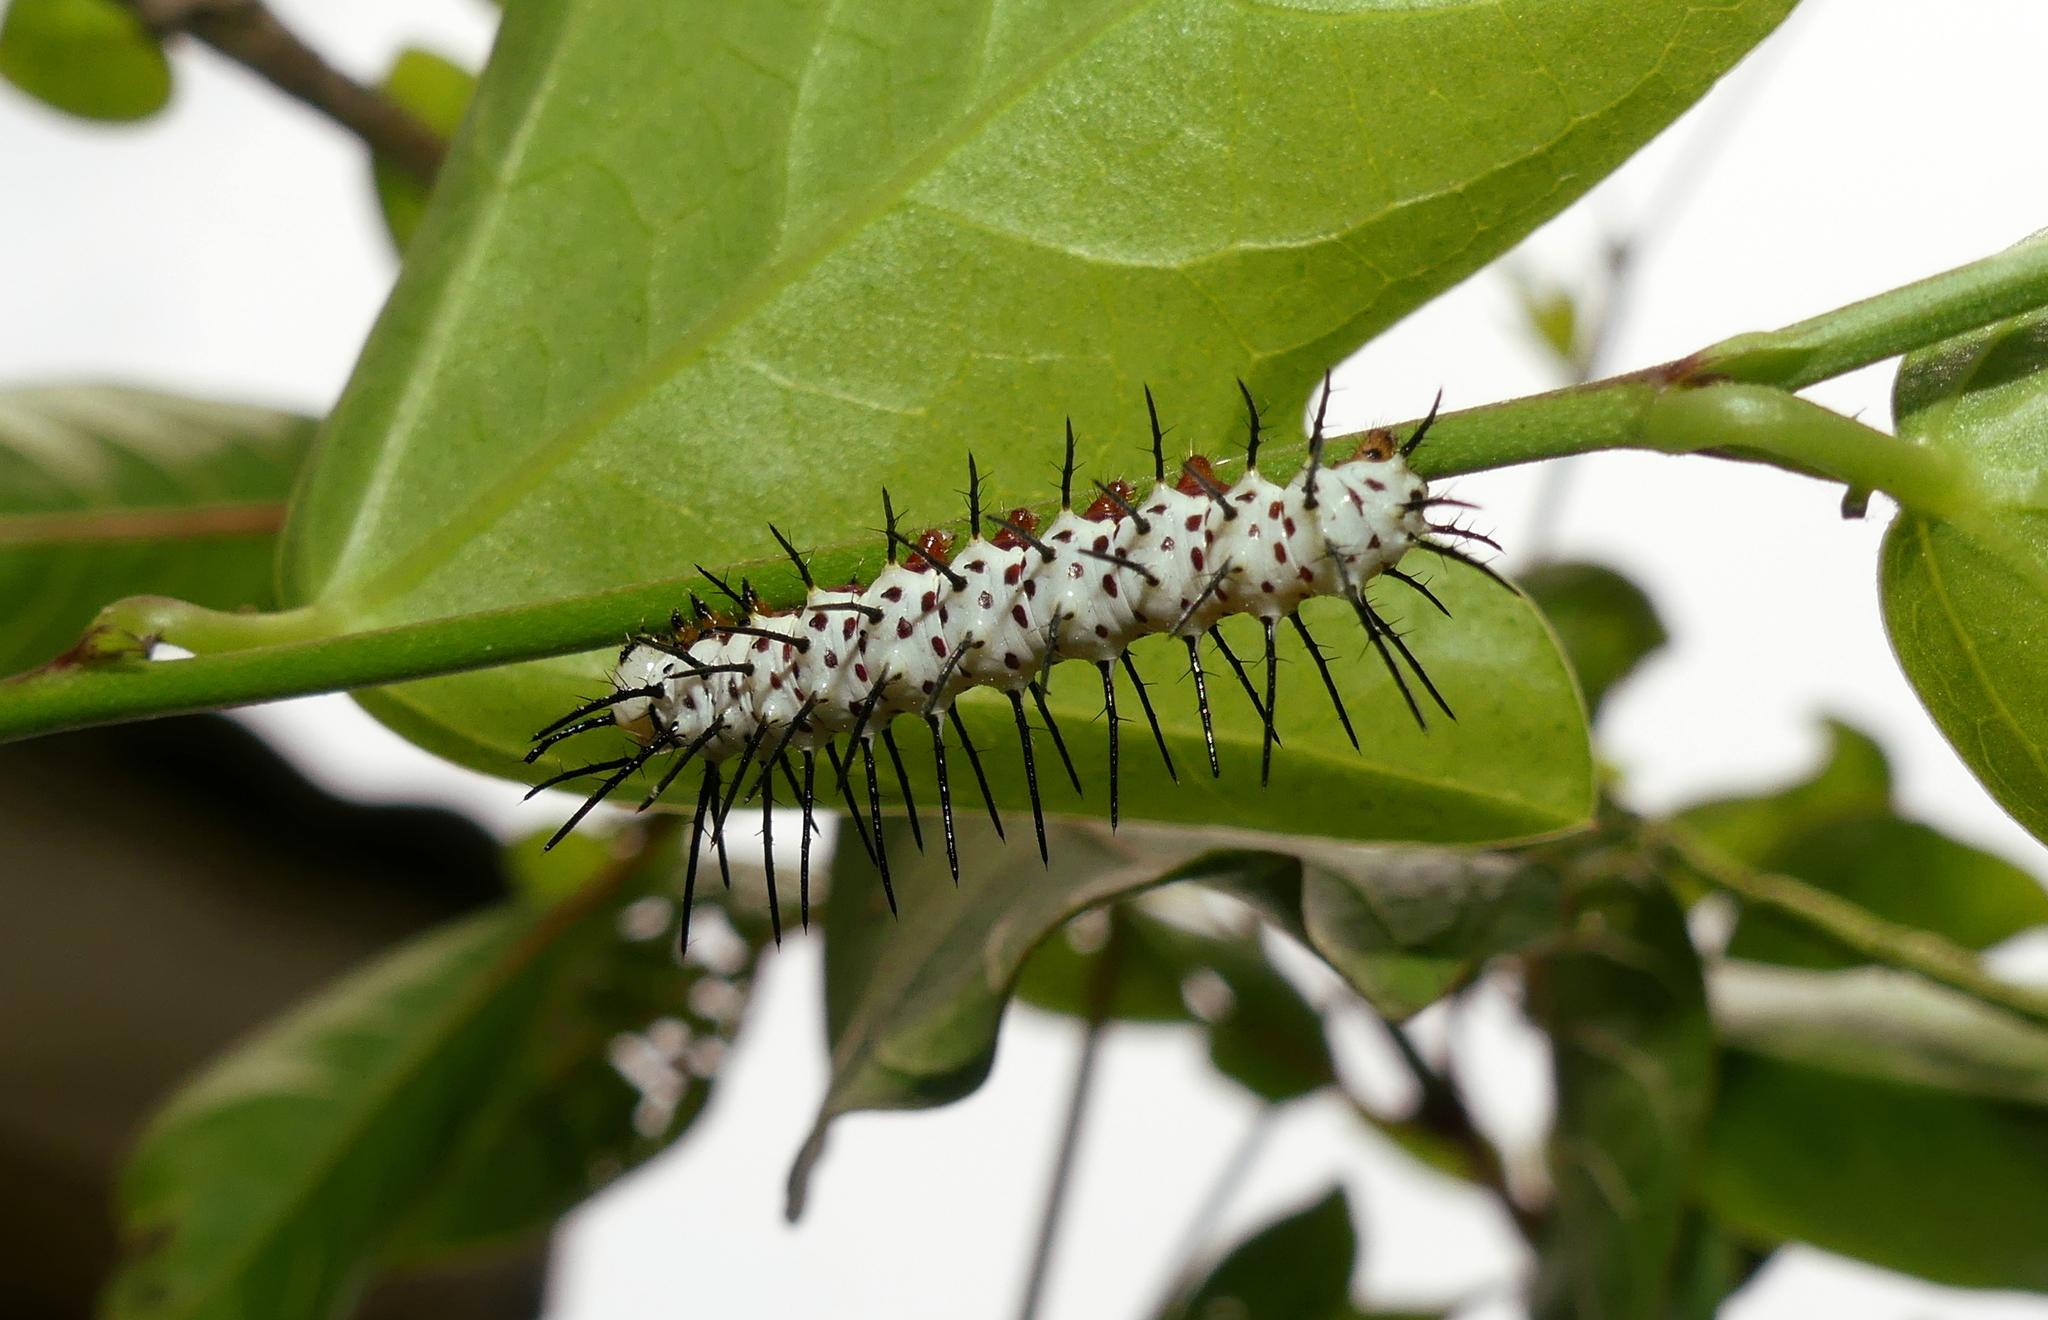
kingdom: Animalia
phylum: Arthropoda
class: Insecta
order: Lepidoptera
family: Nymphalidae
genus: Heliconius
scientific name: Heliconius charithonia
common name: Zebra long wing
